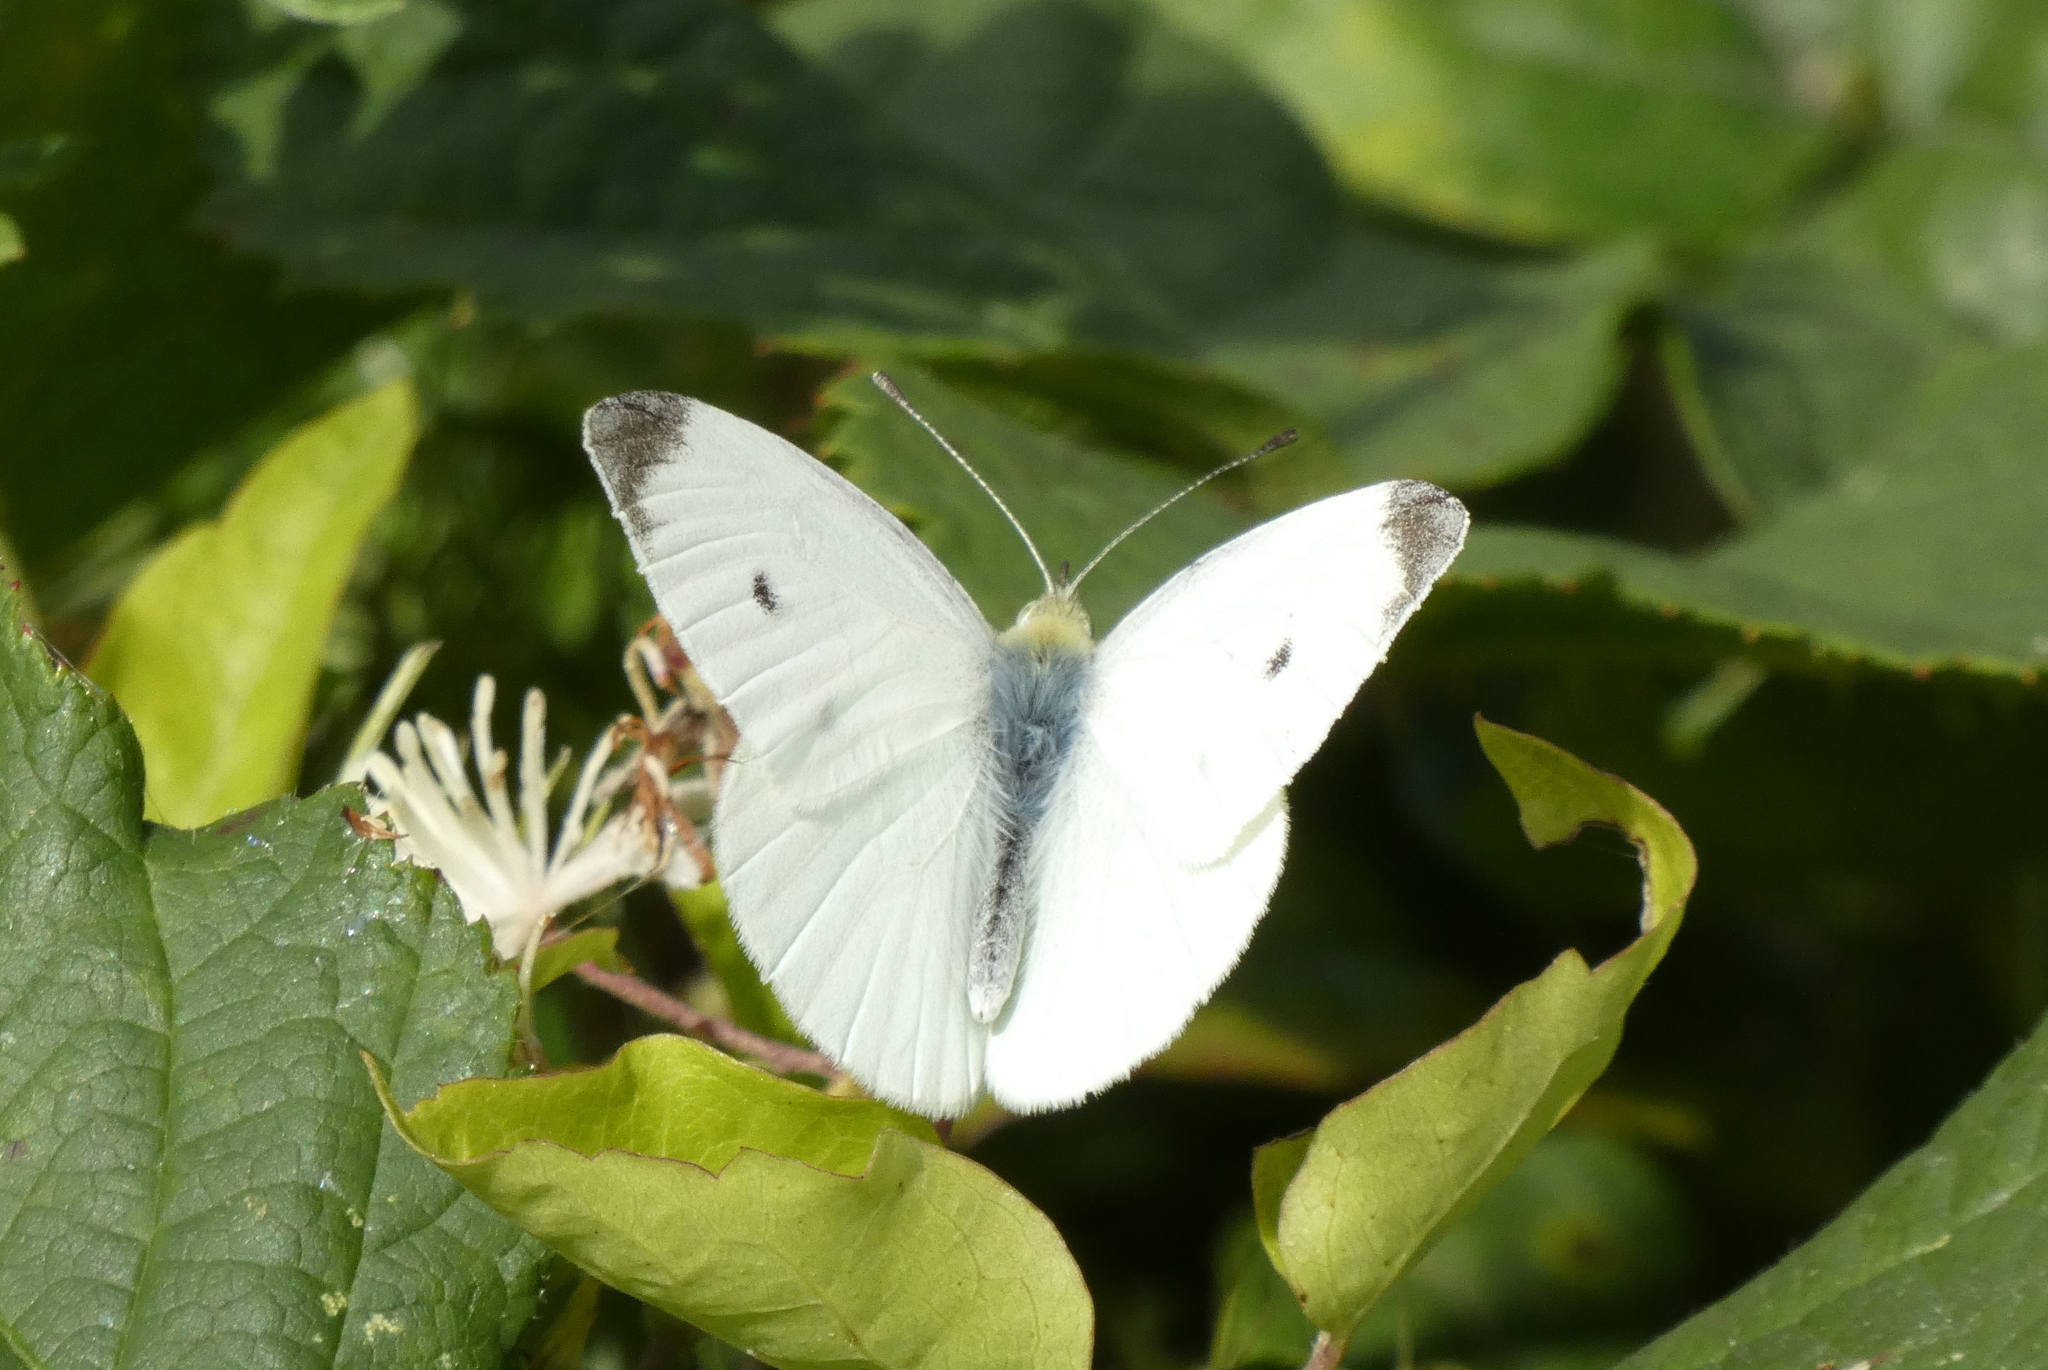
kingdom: Animalia
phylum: Arthropoda
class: Insecta
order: Lepidoptera
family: Pieridae
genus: Pieris
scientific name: Pieris rapae
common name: Small white
